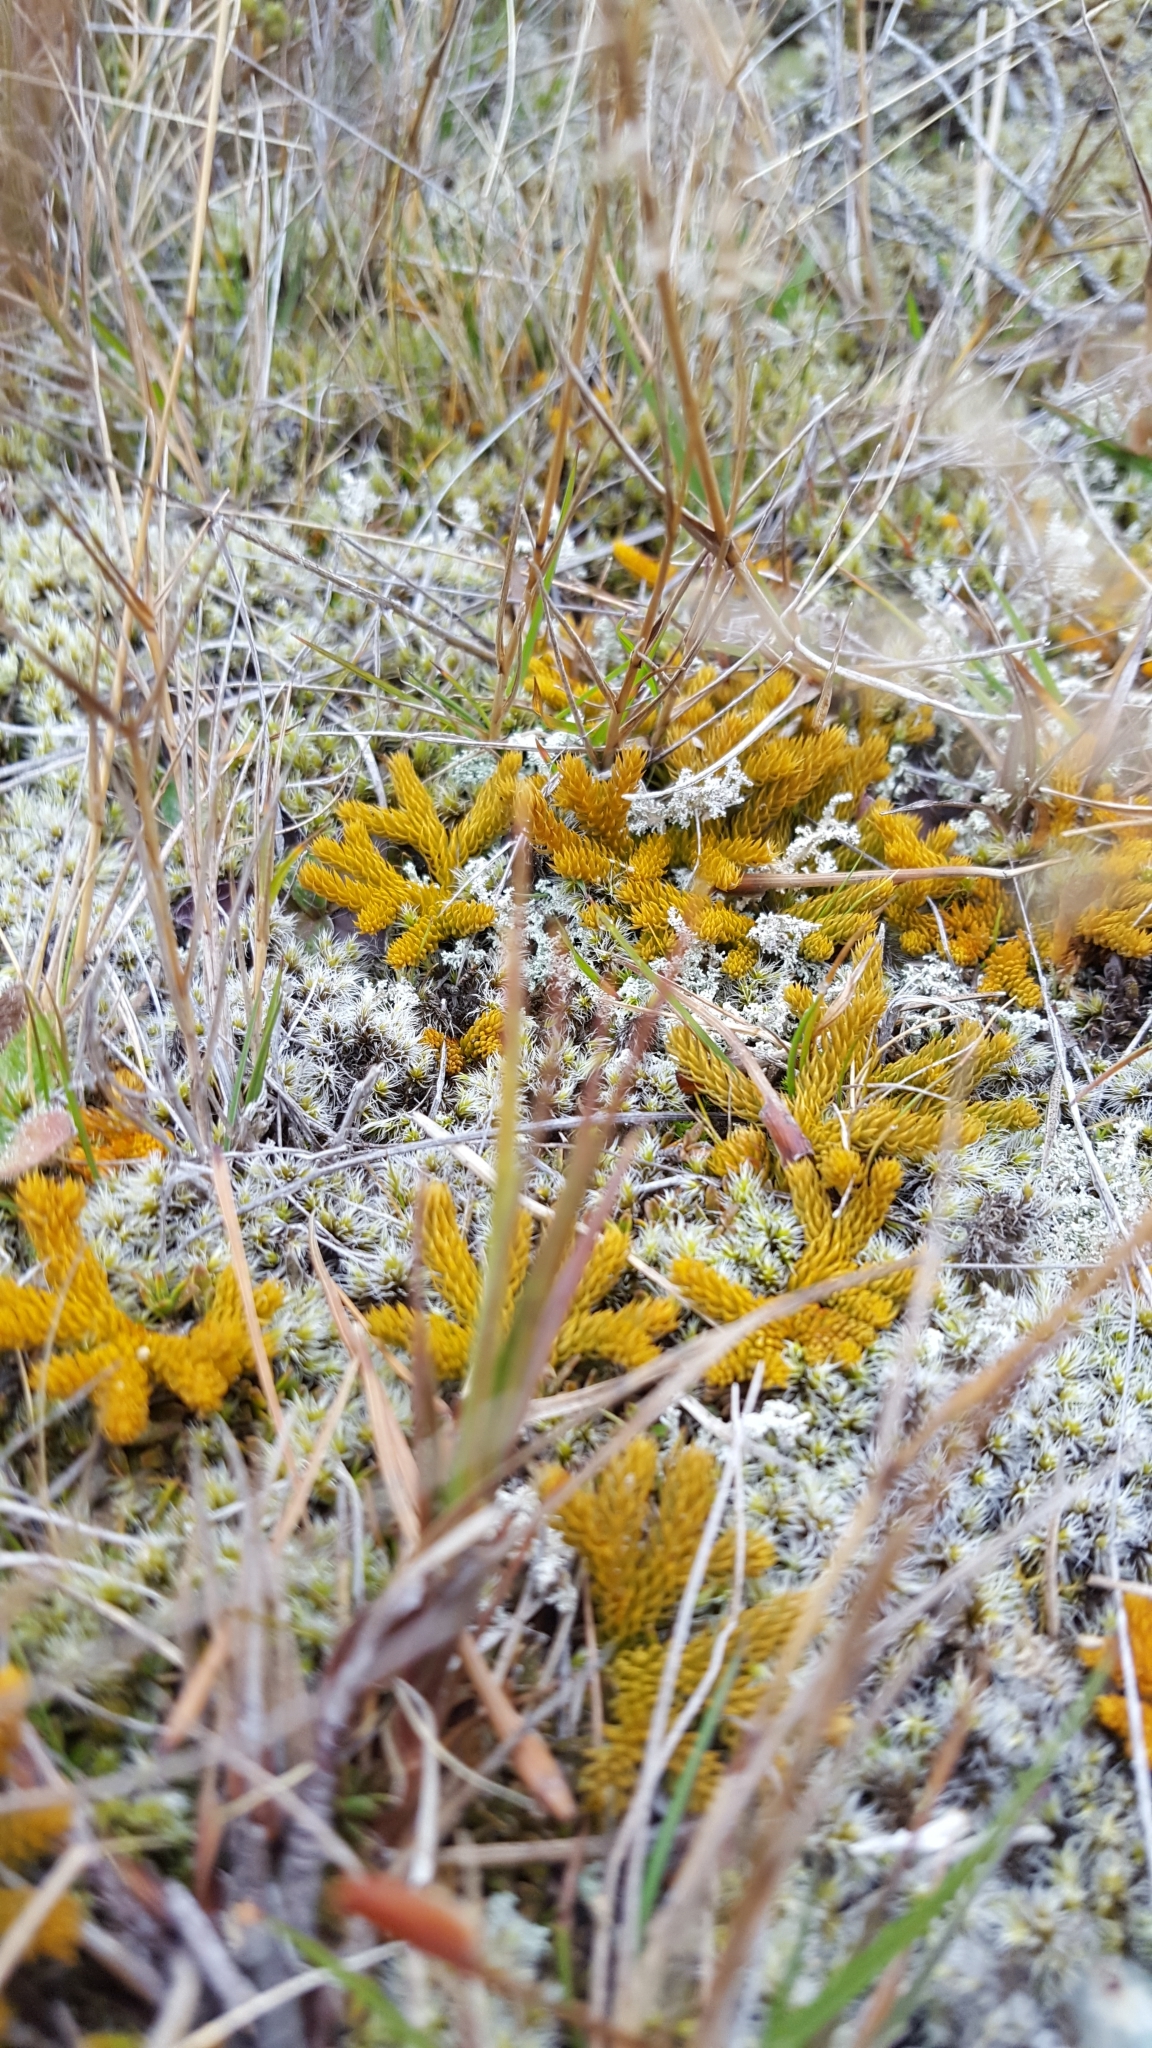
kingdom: Plantae
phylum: Tracheophyta
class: Lycopodiopsida
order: Lycopodiales
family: Lycopodiaceae
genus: Austrolycopodium
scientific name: Austrolycopodium fastigiatum
